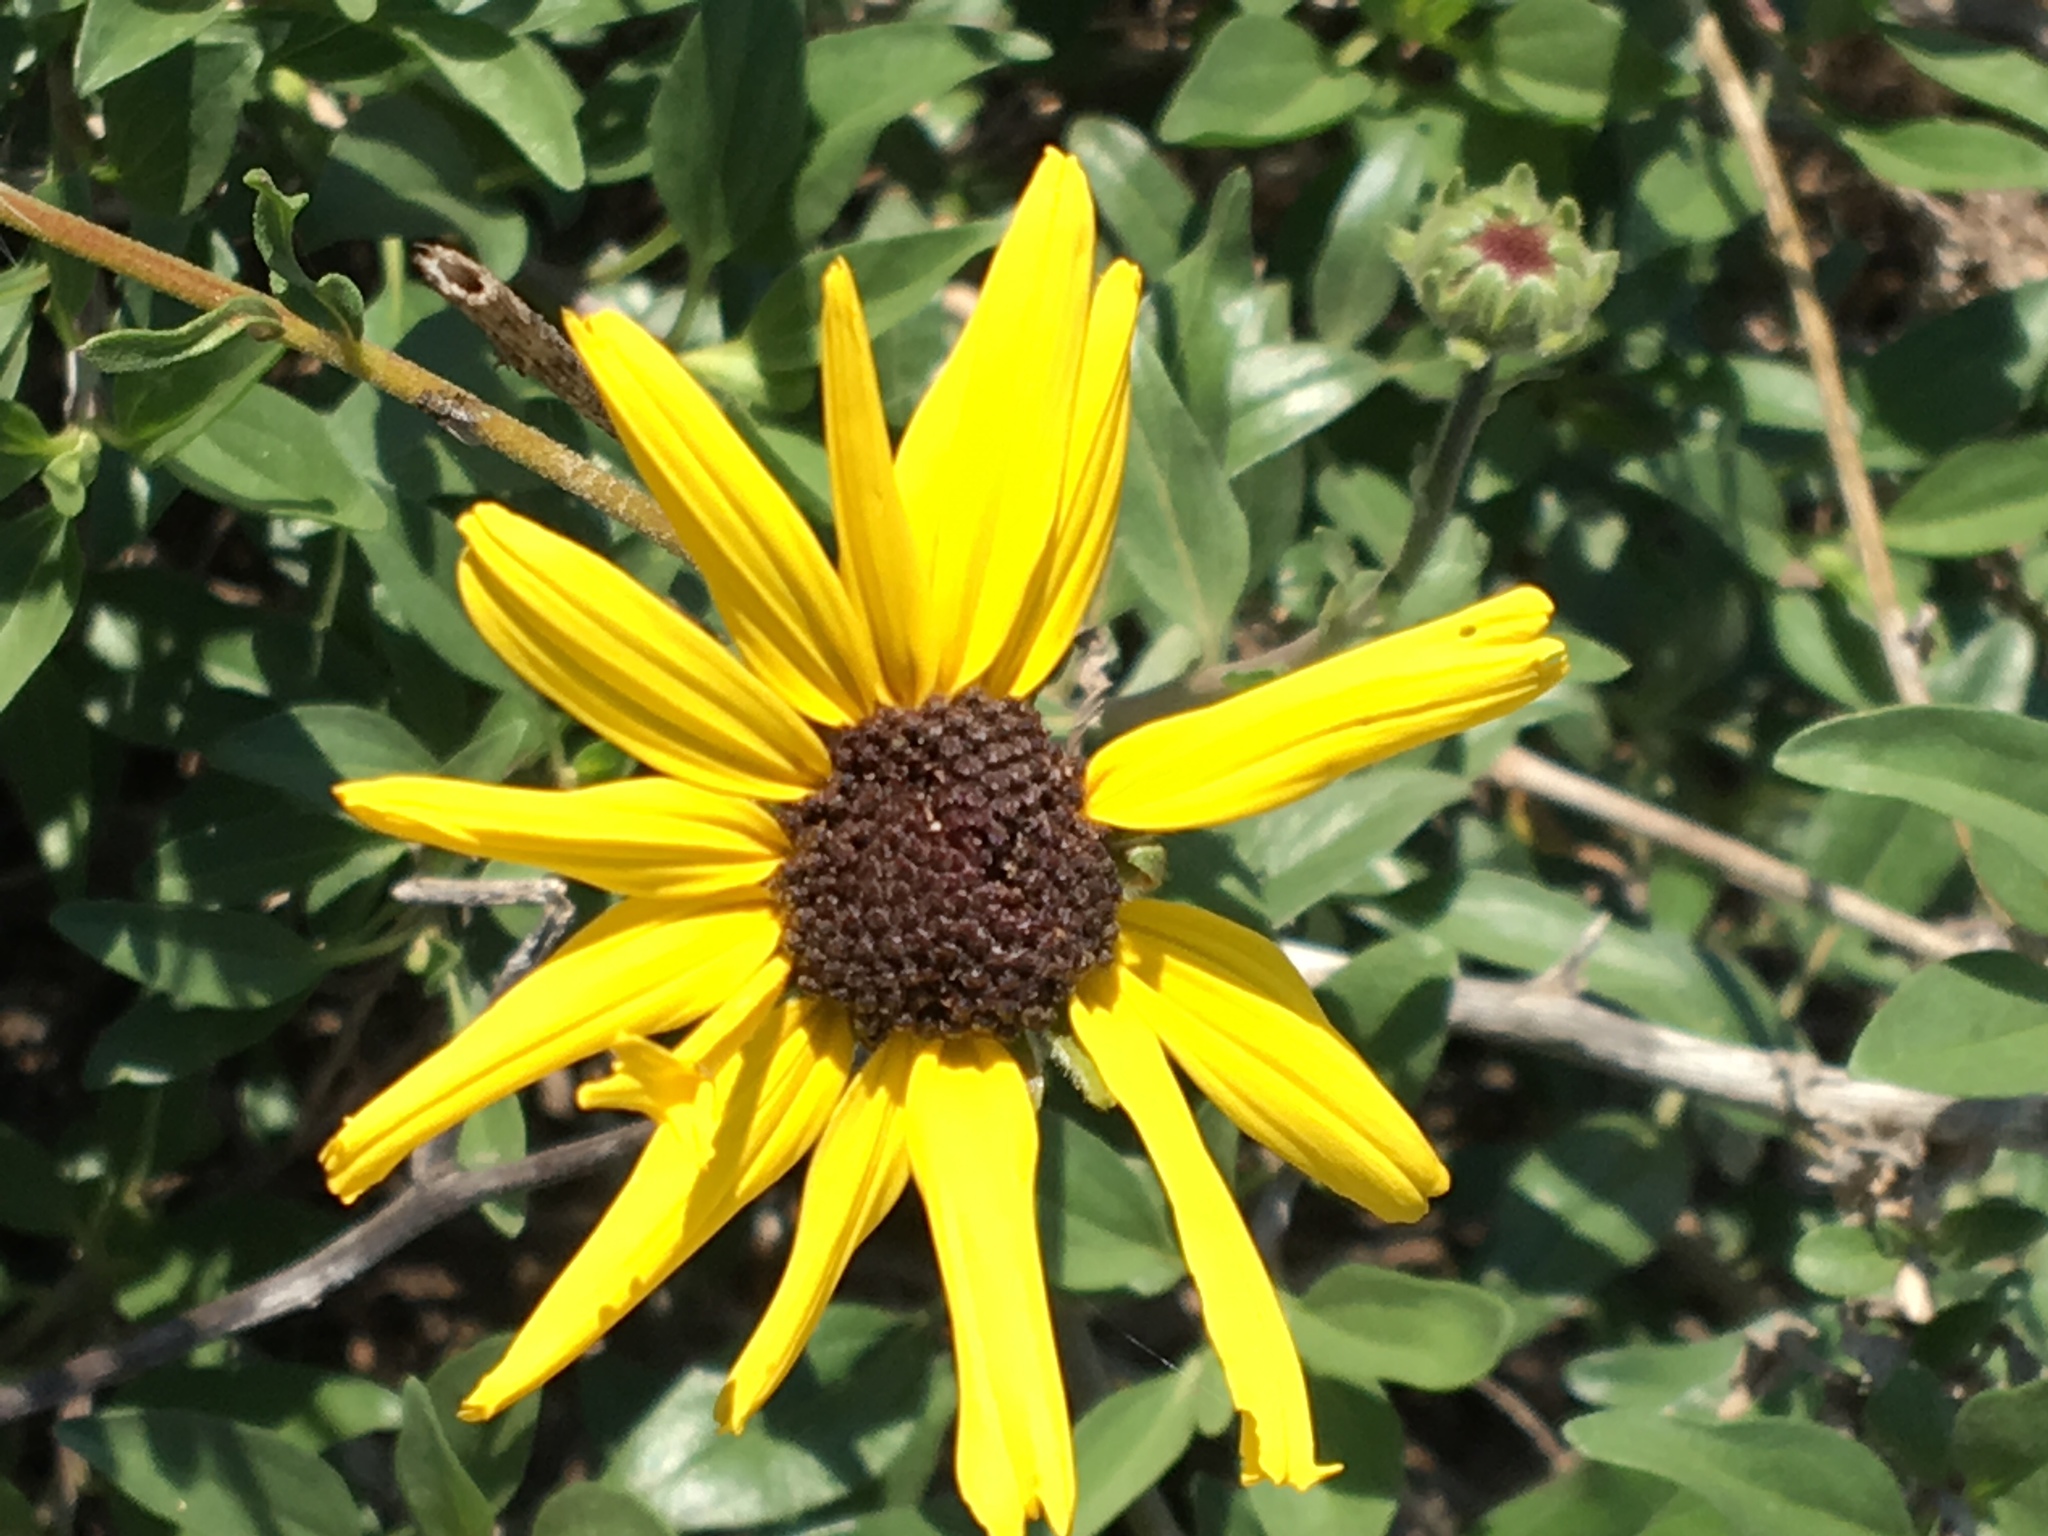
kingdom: Plantae
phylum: Tracheophyta
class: Magnoliopsida
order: Asterales
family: Asteraceae
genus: Encelia
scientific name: Encelia californica
